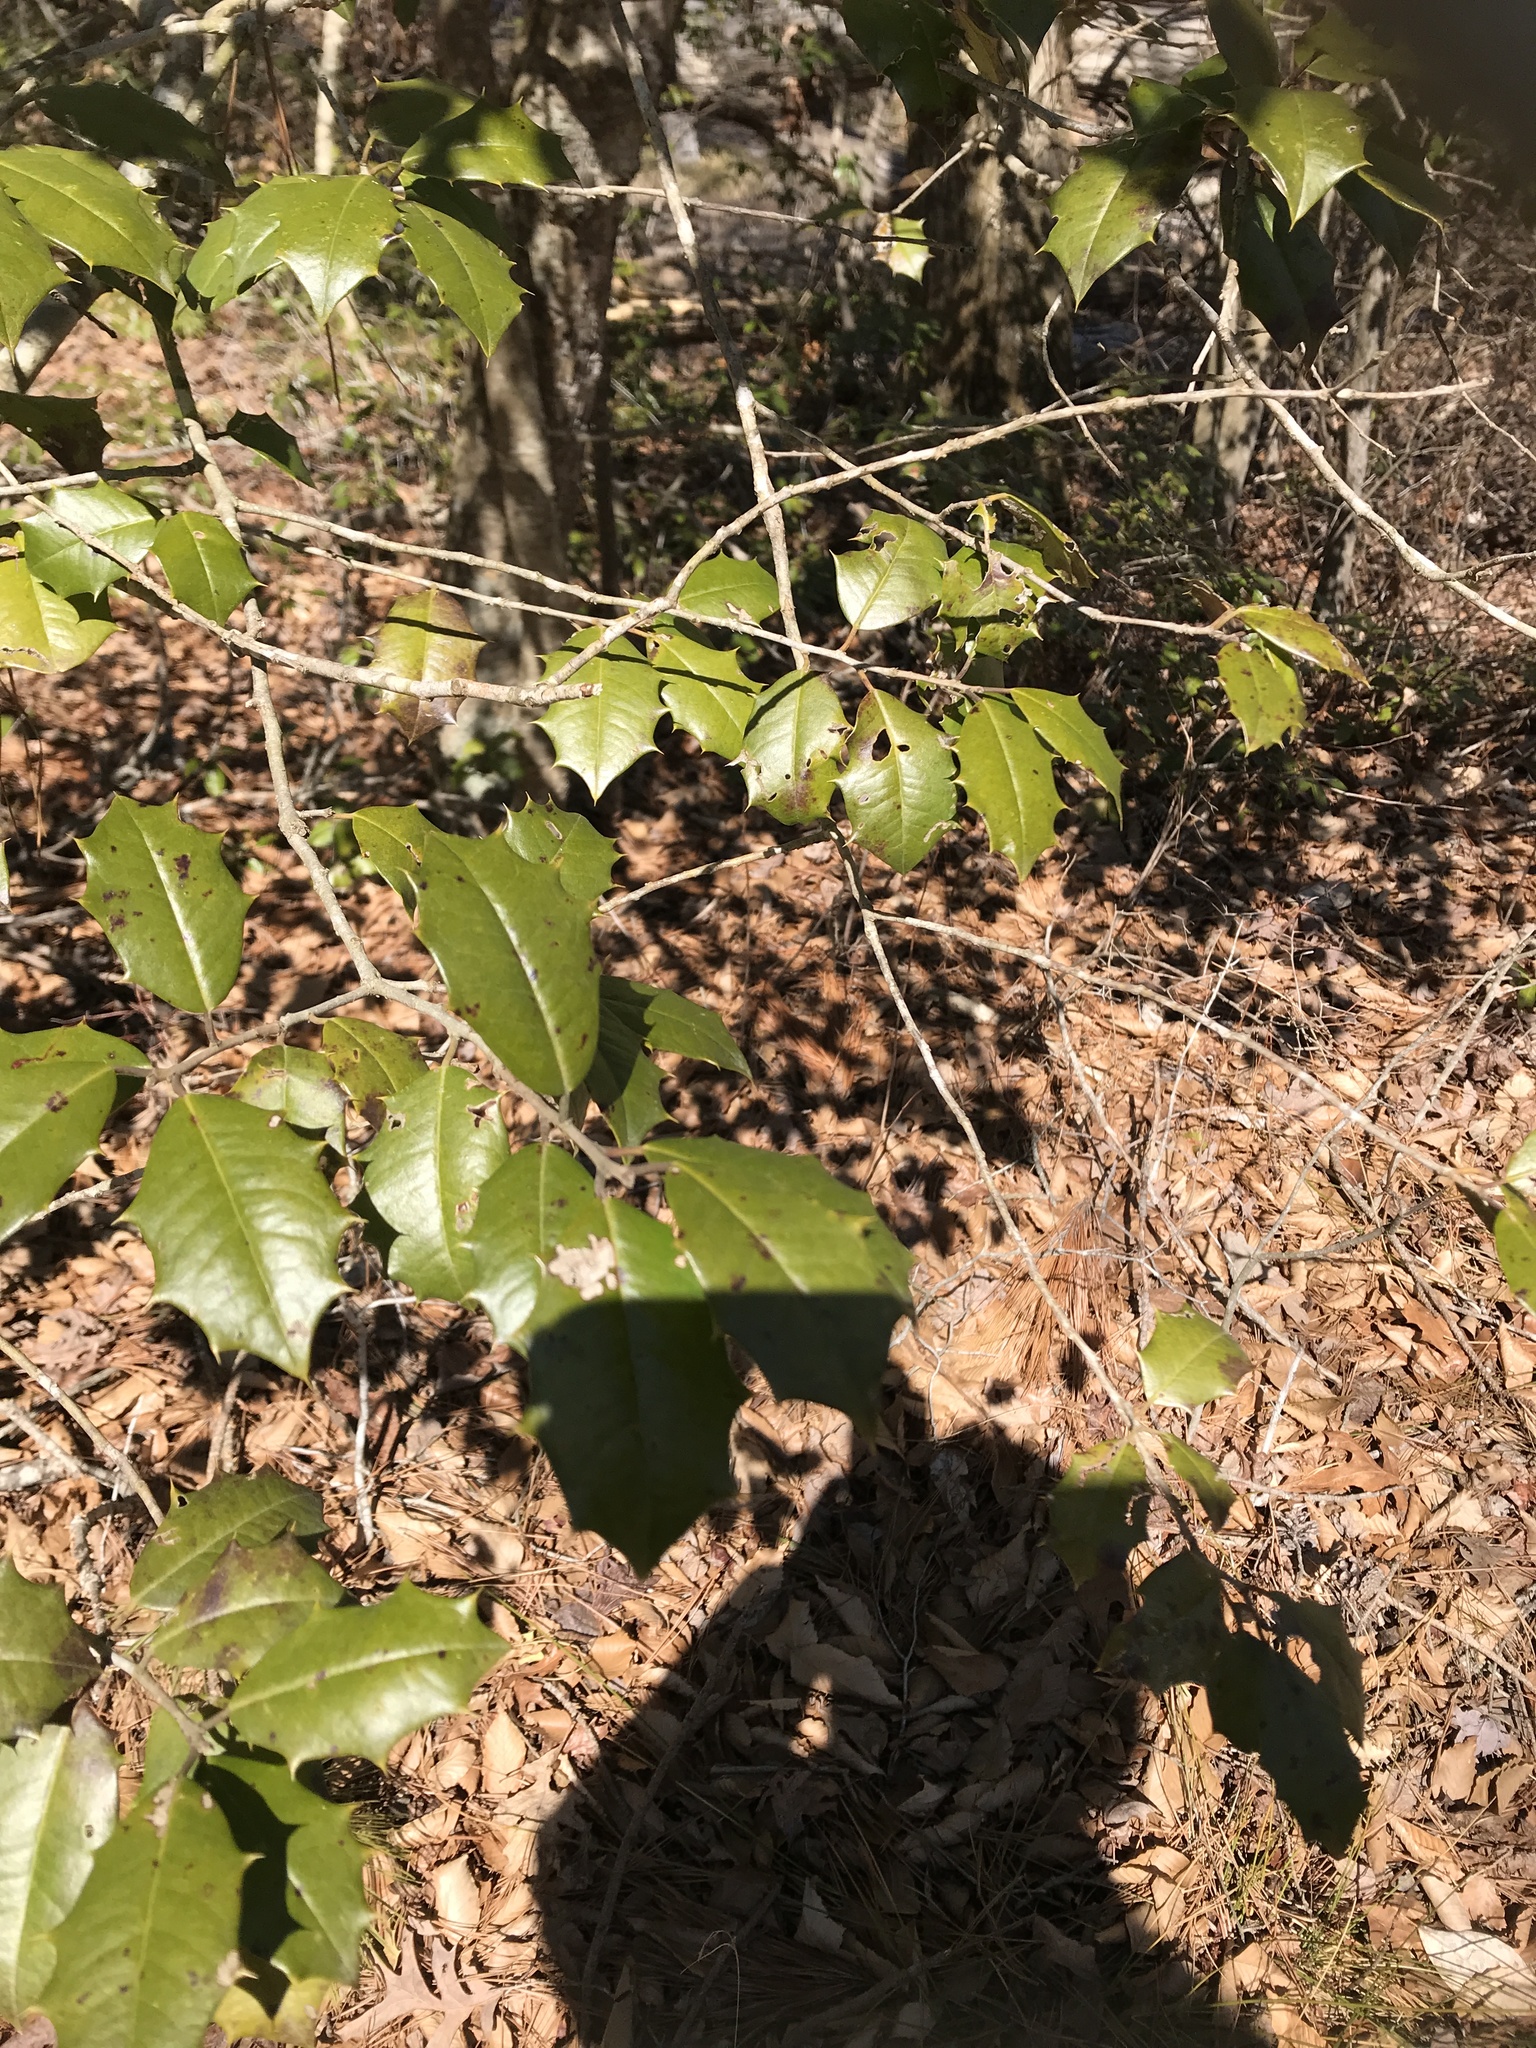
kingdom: Plantae
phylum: Tracheophyta
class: Magnoliopsida
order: Aquifoliales
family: Aquifoliaceae
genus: Ilex
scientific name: Ilex opaca
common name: American holly
